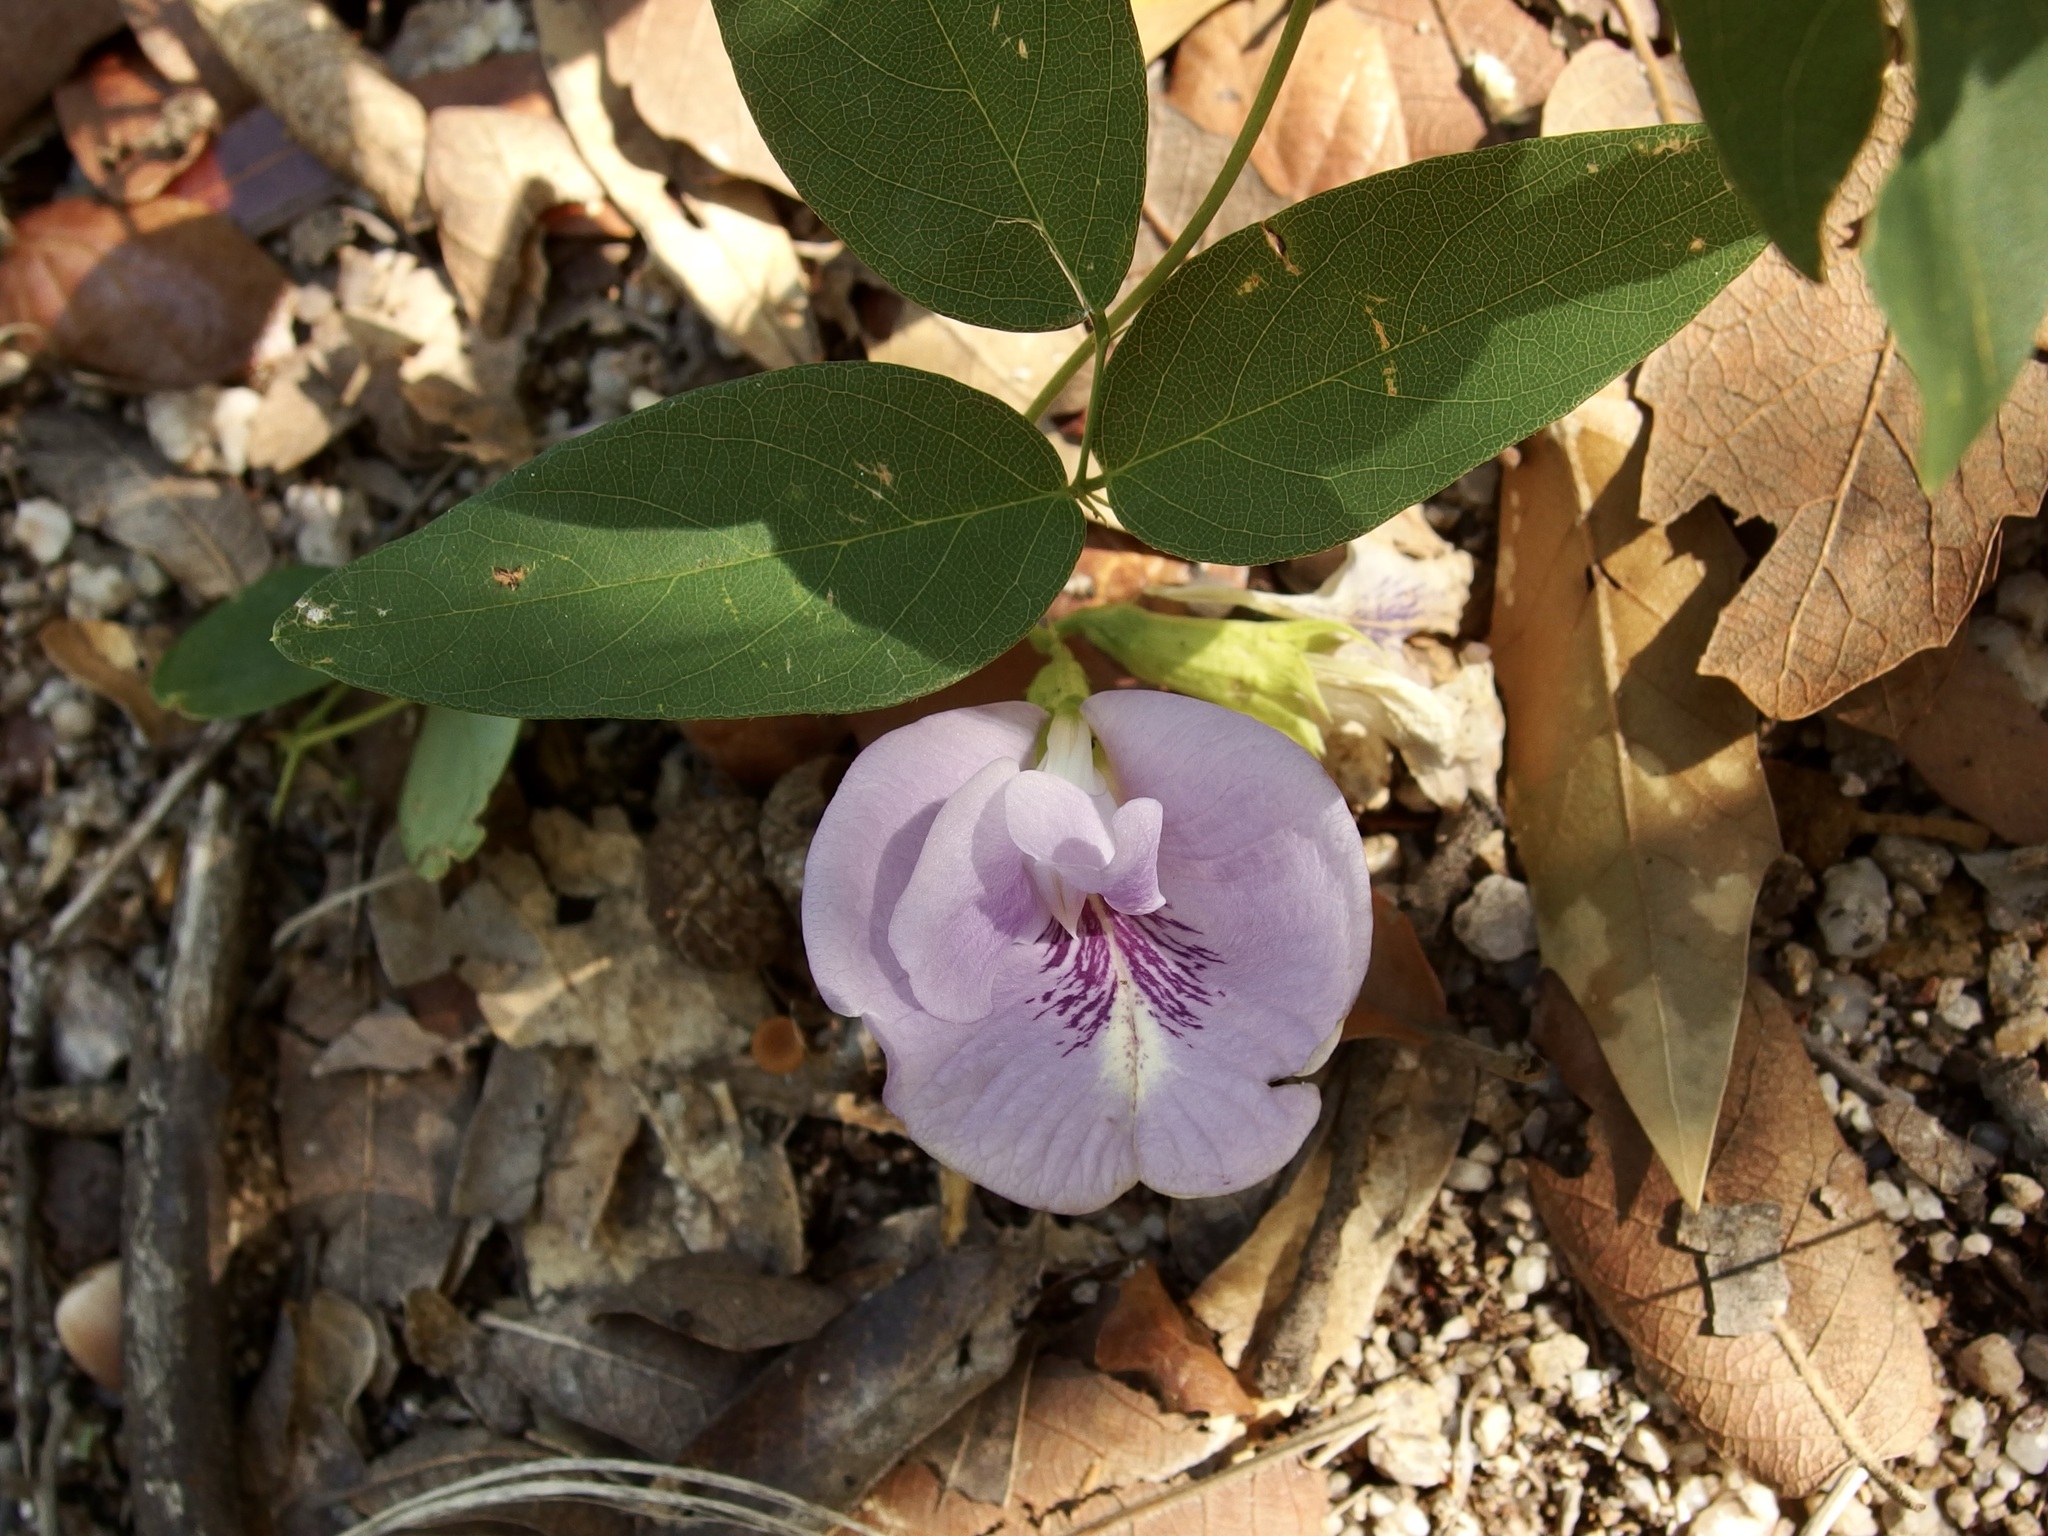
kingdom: Plantae
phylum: Tracheophyta
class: Magnoliopsida
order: Fabales
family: Fabaceae
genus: Clitoria
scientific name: Clitoria mariana
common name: Butterfly-pea
